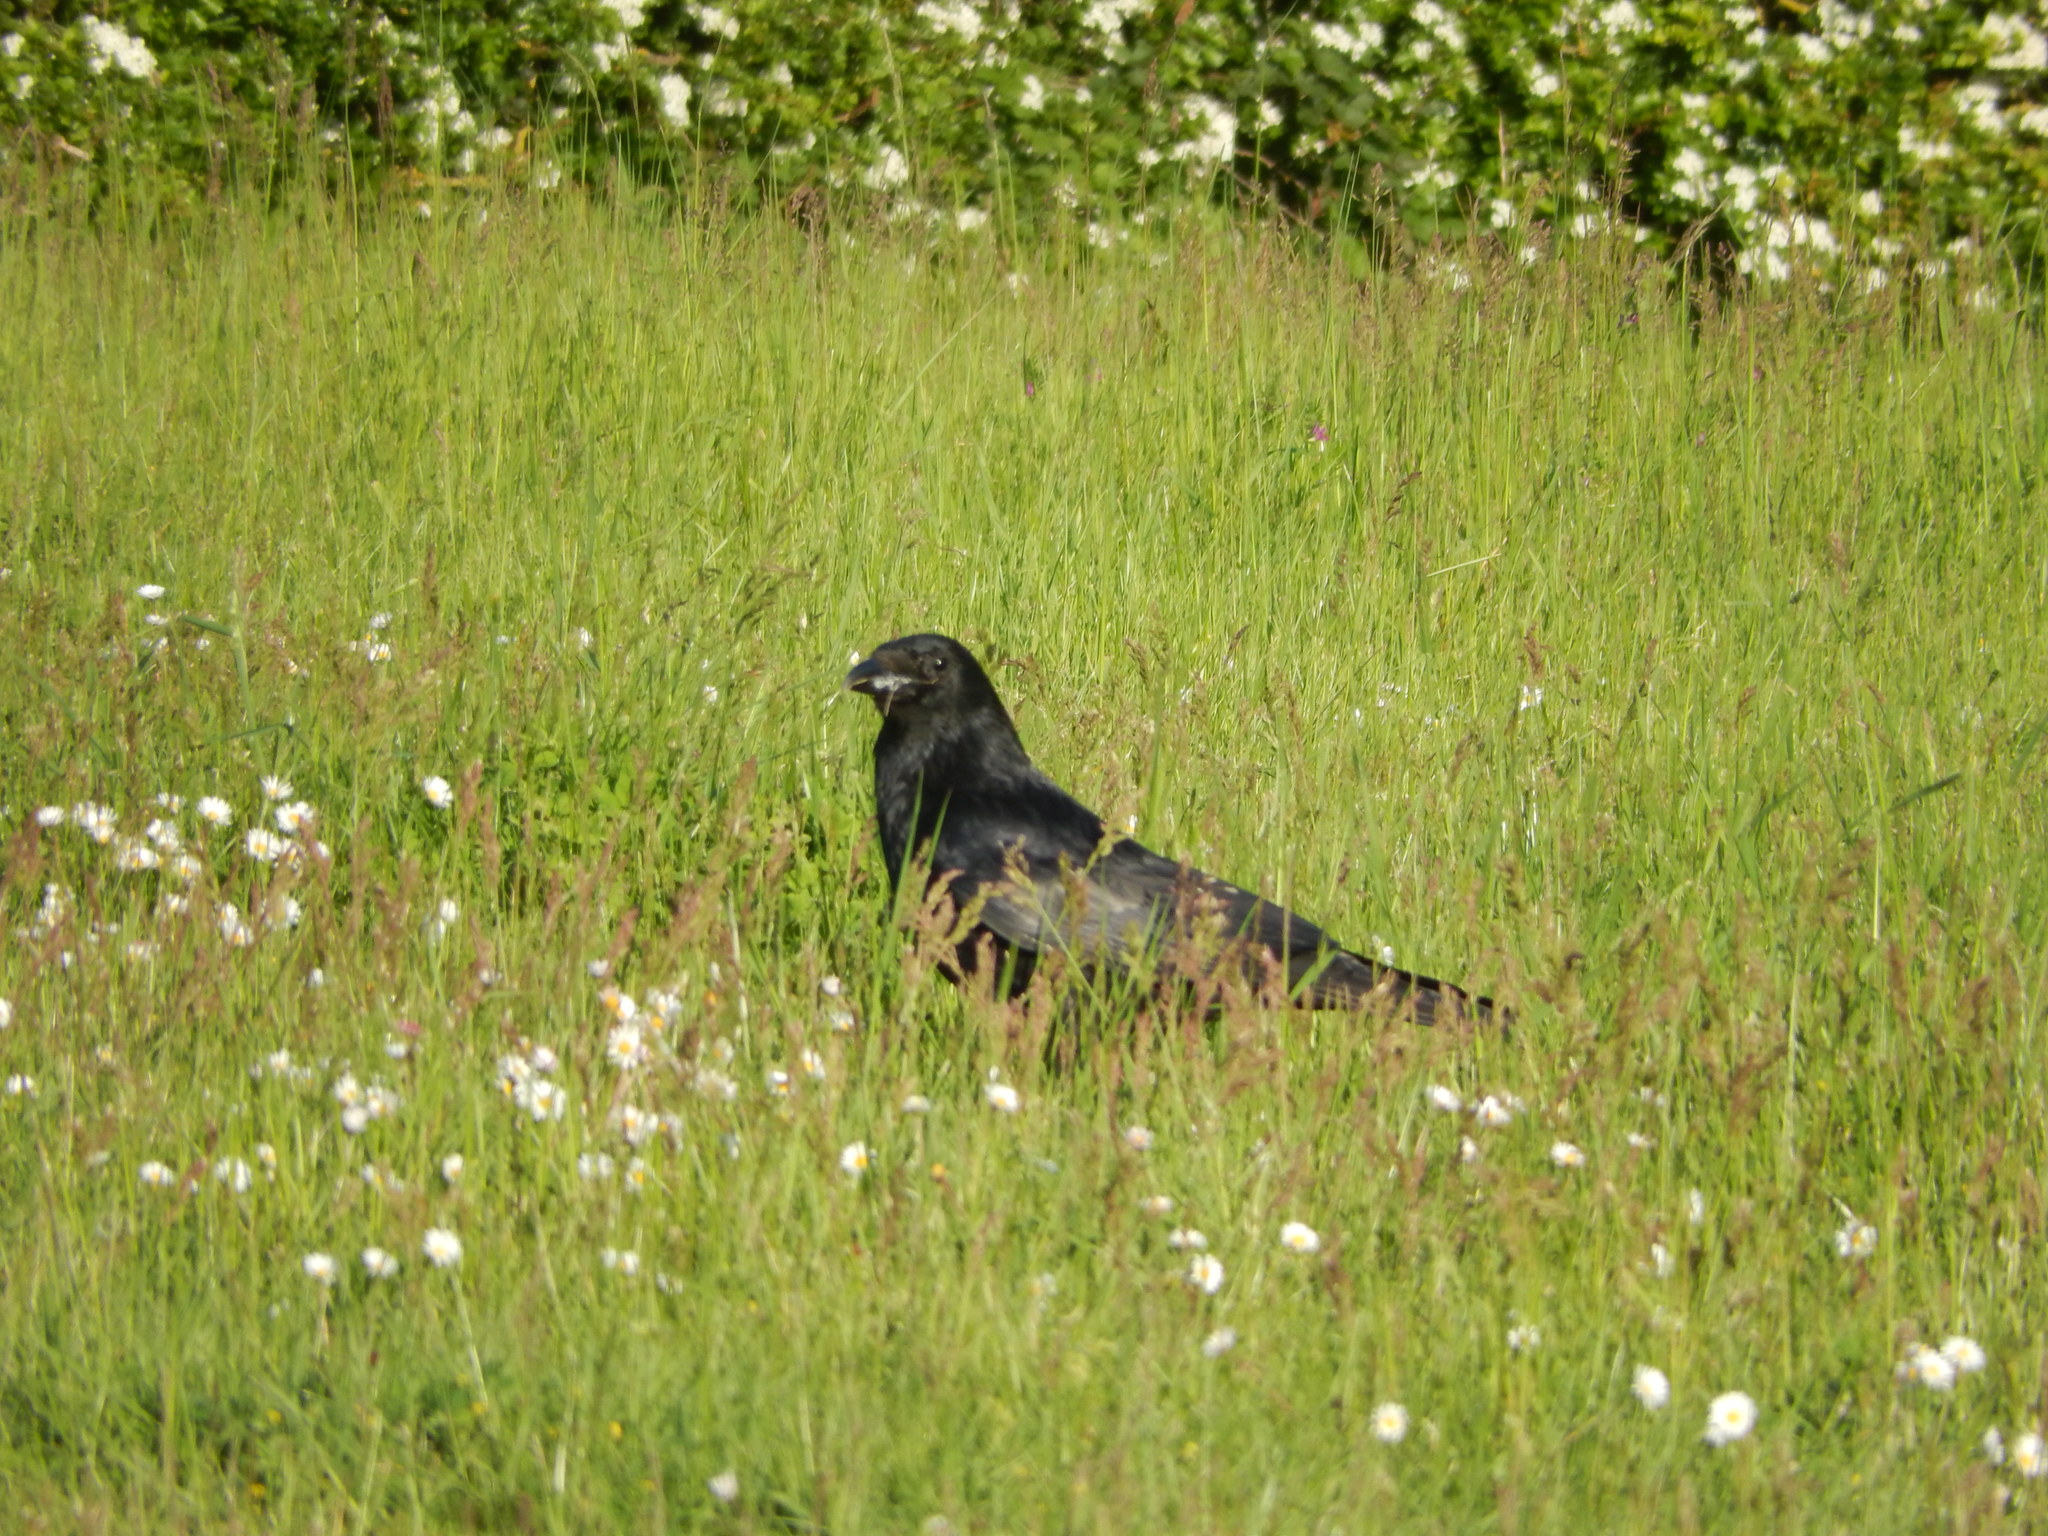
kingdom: Animalia
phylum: Chordata
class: Aves
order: Passeriformes
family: Corvidae
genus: Corvus
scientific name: Corvus corone
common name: Carrion crow
